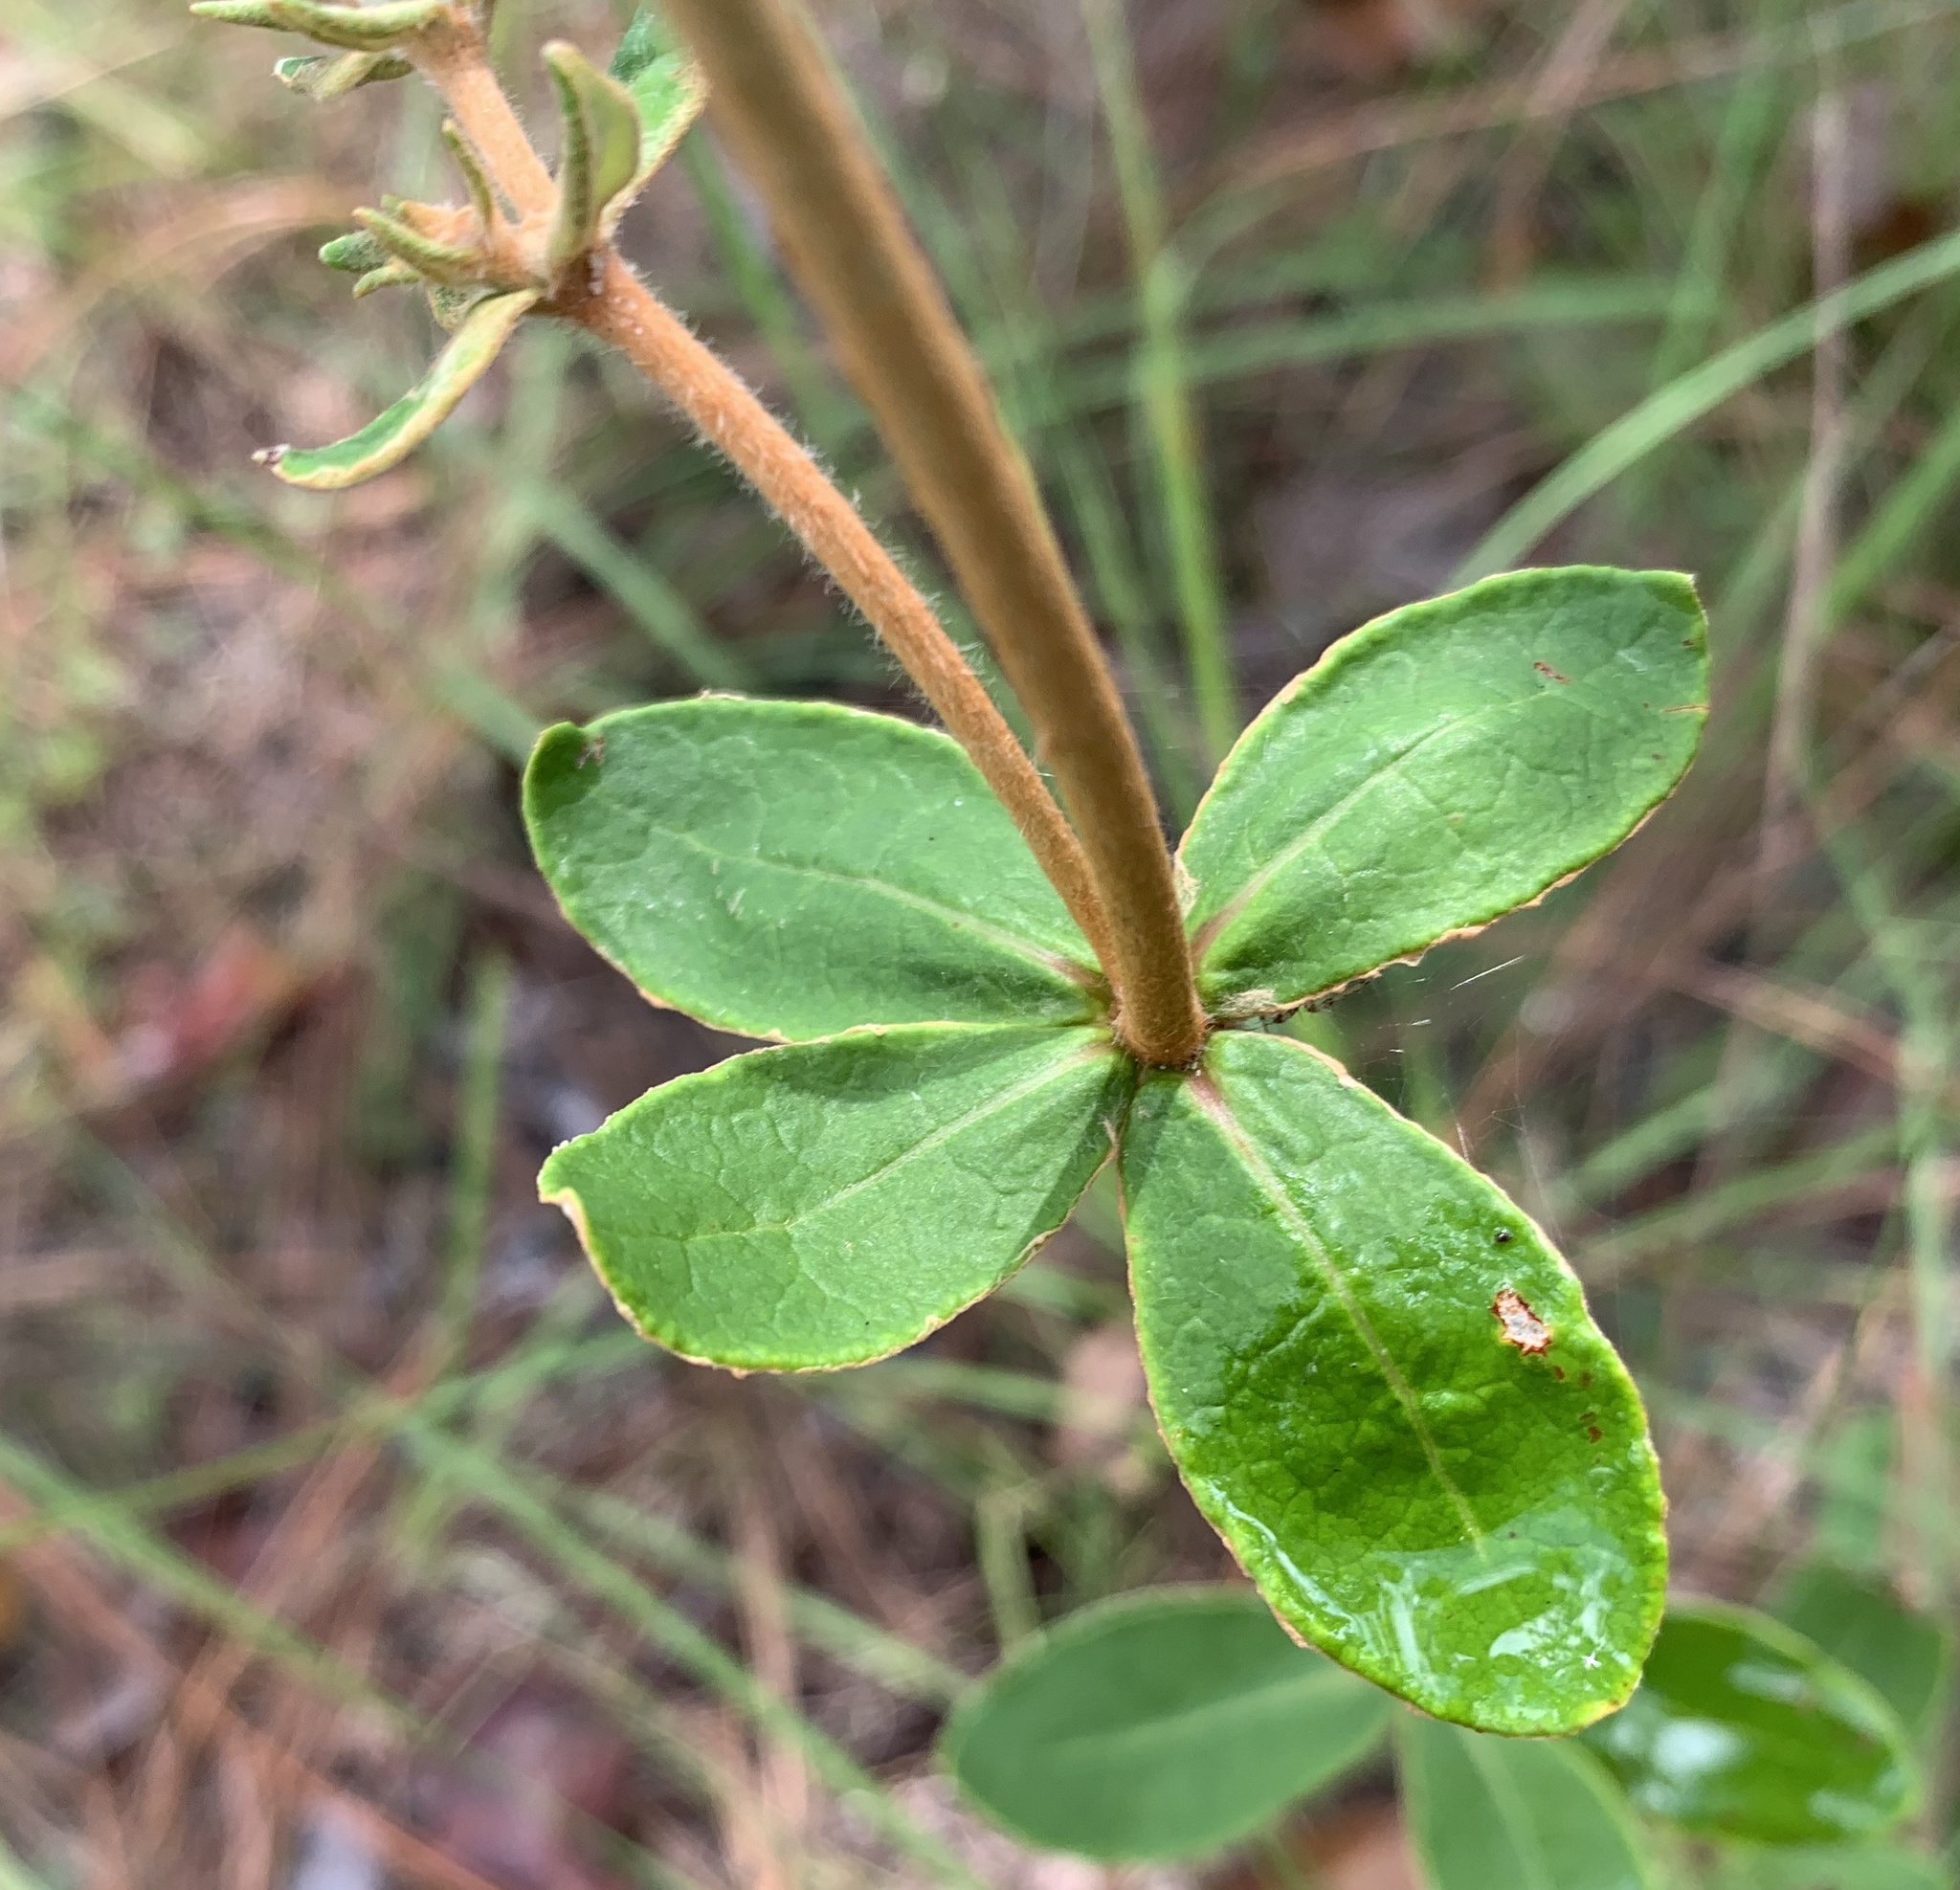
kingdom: Plantae
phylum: Tracheophyta
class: Magnoliopsida
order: Caryophyllales
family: Polygonaceae
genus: Eriogonum
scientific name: Eriogonum tomentosum
